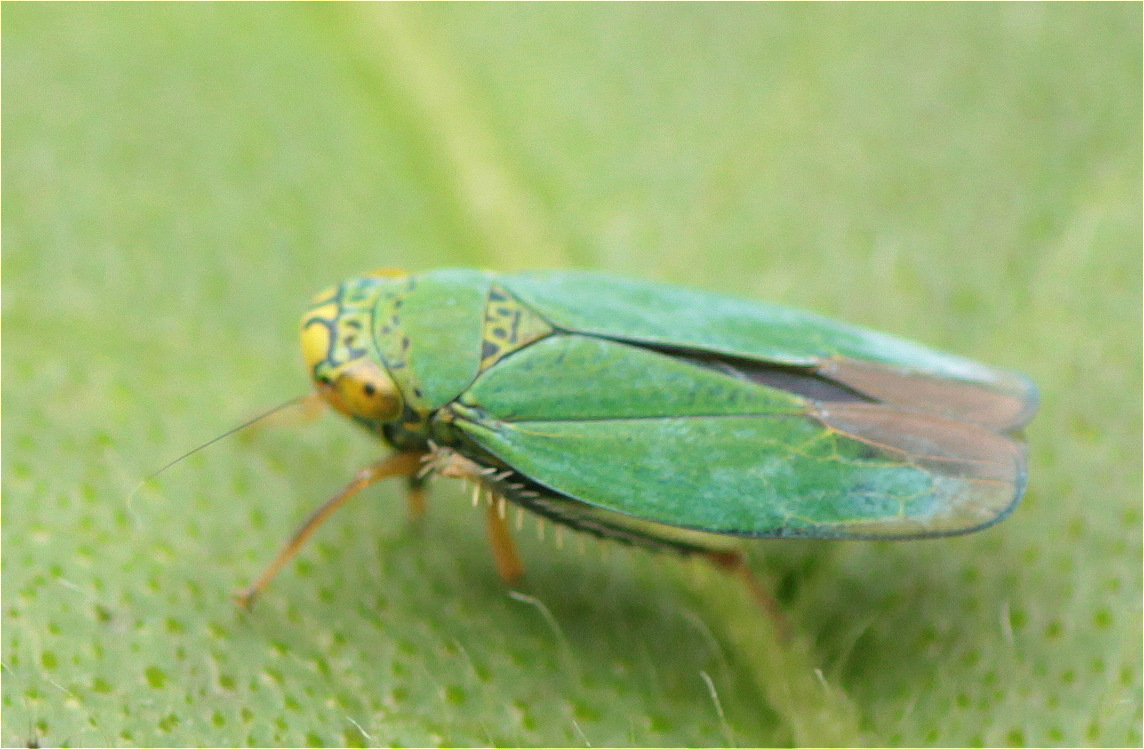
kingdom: Animalia
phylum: Arthropoda
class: Insecta
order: Hemiptera
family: Cicadellidae
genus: Tortigonalia
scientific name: Tortigonalia longicaudata
